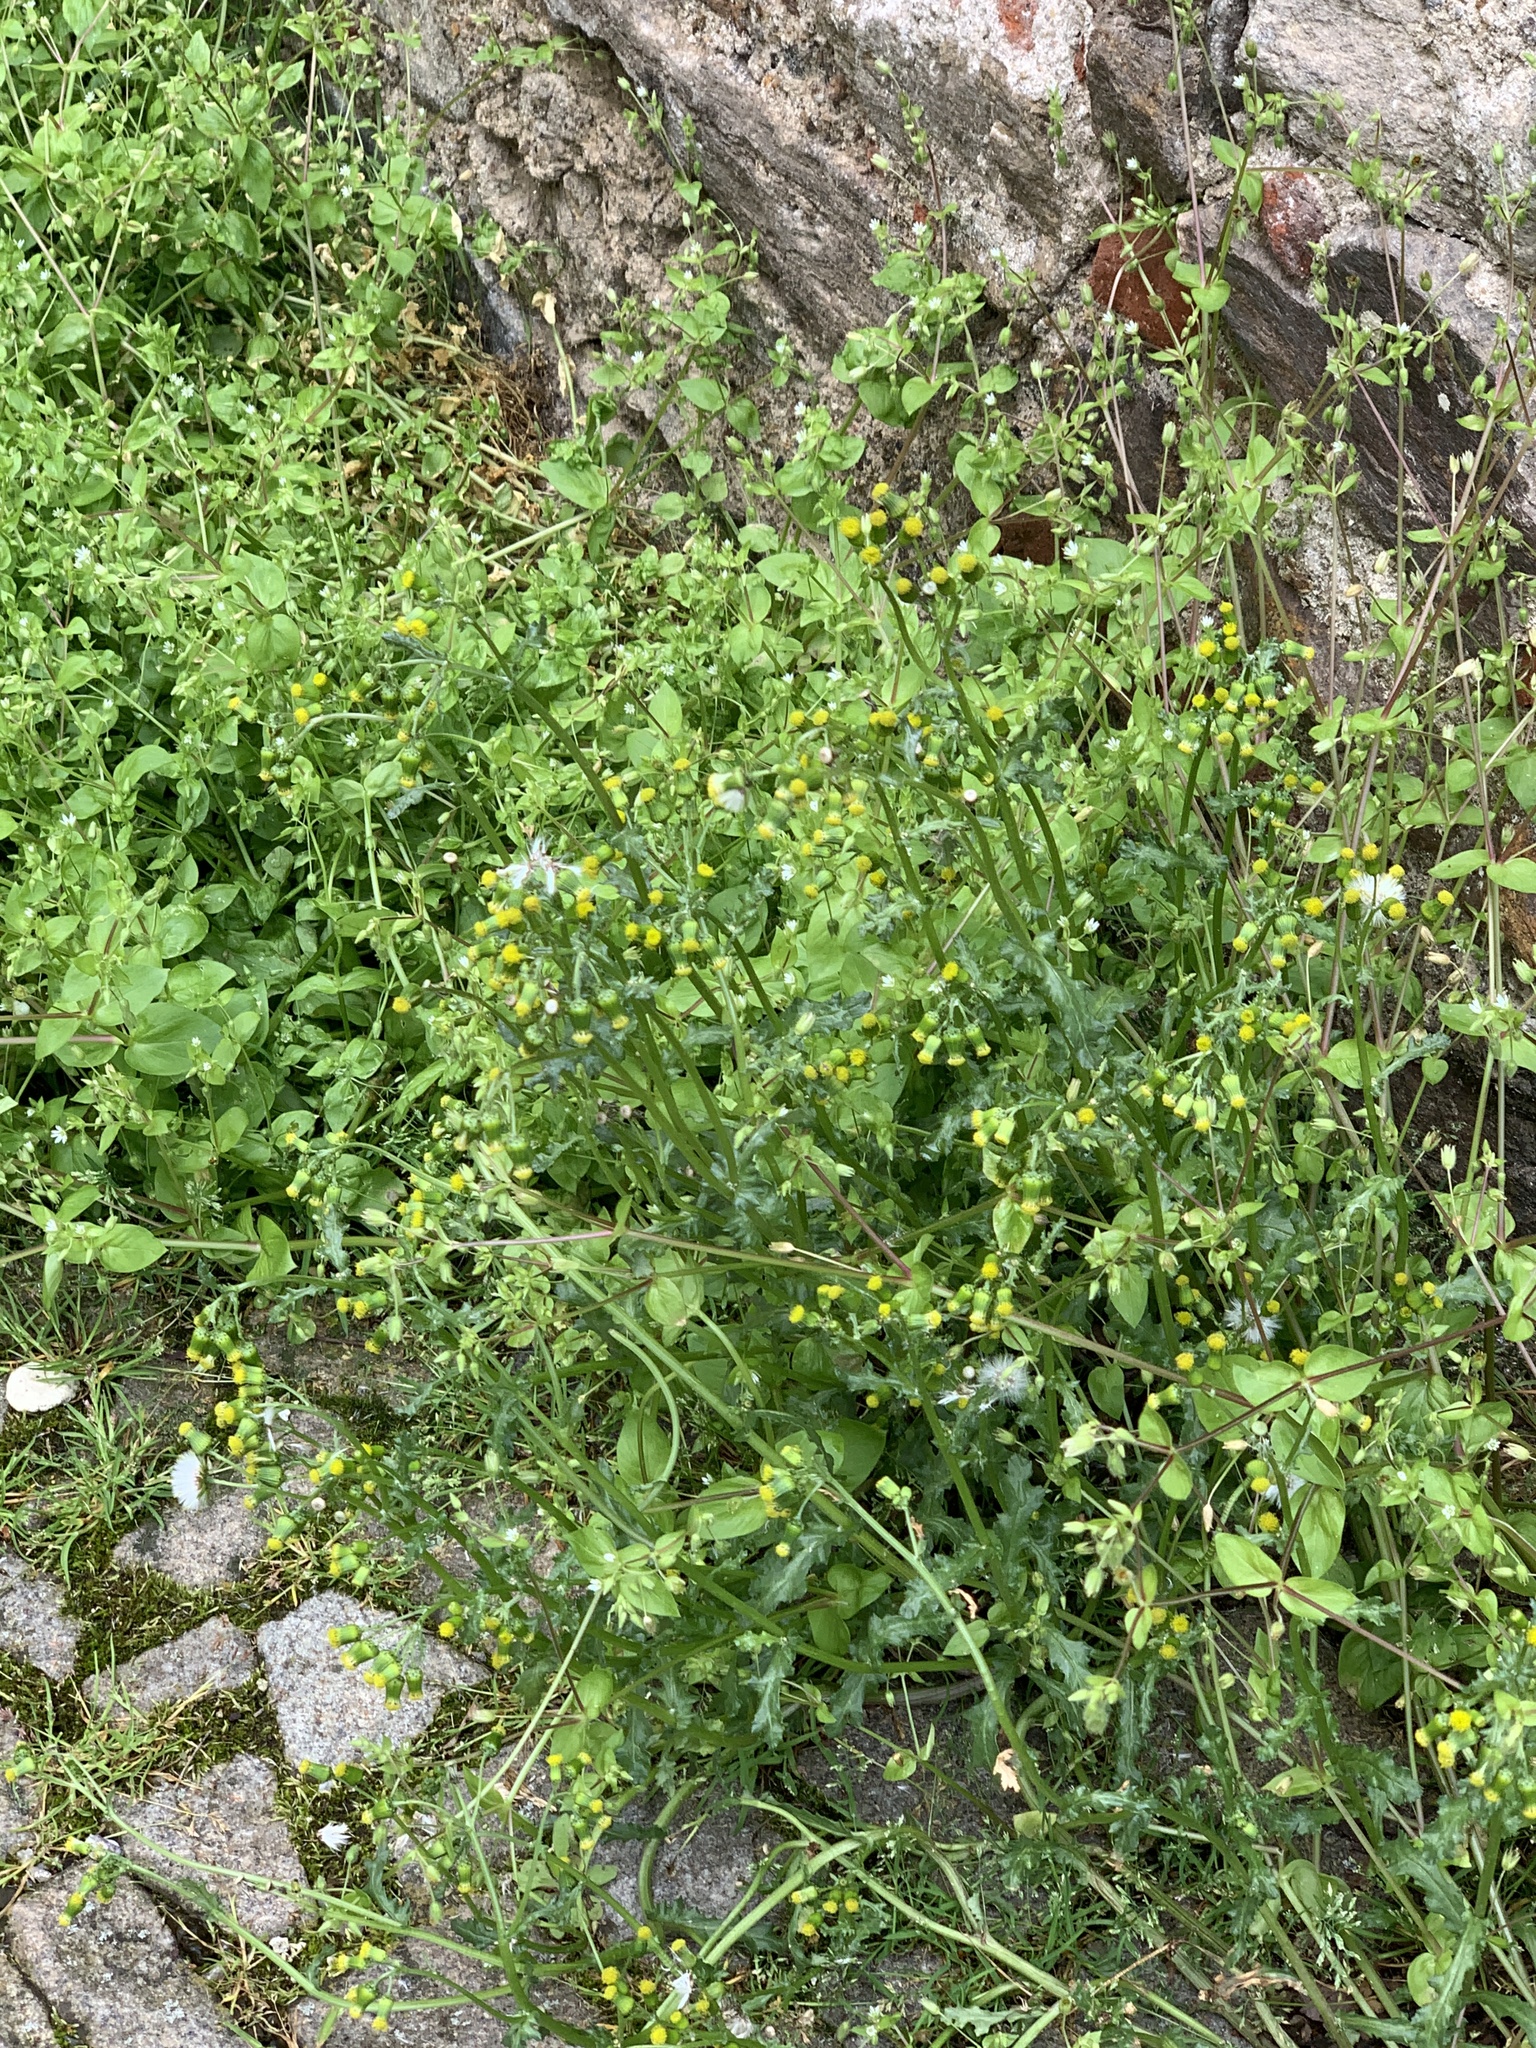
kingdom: Plantae
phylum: Tracheophyta
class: Magnoliopsida
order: Asterales
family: Asteraceae
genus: Senecio
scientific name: Senecio vulgaris
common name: Old-man-in-the-spring
